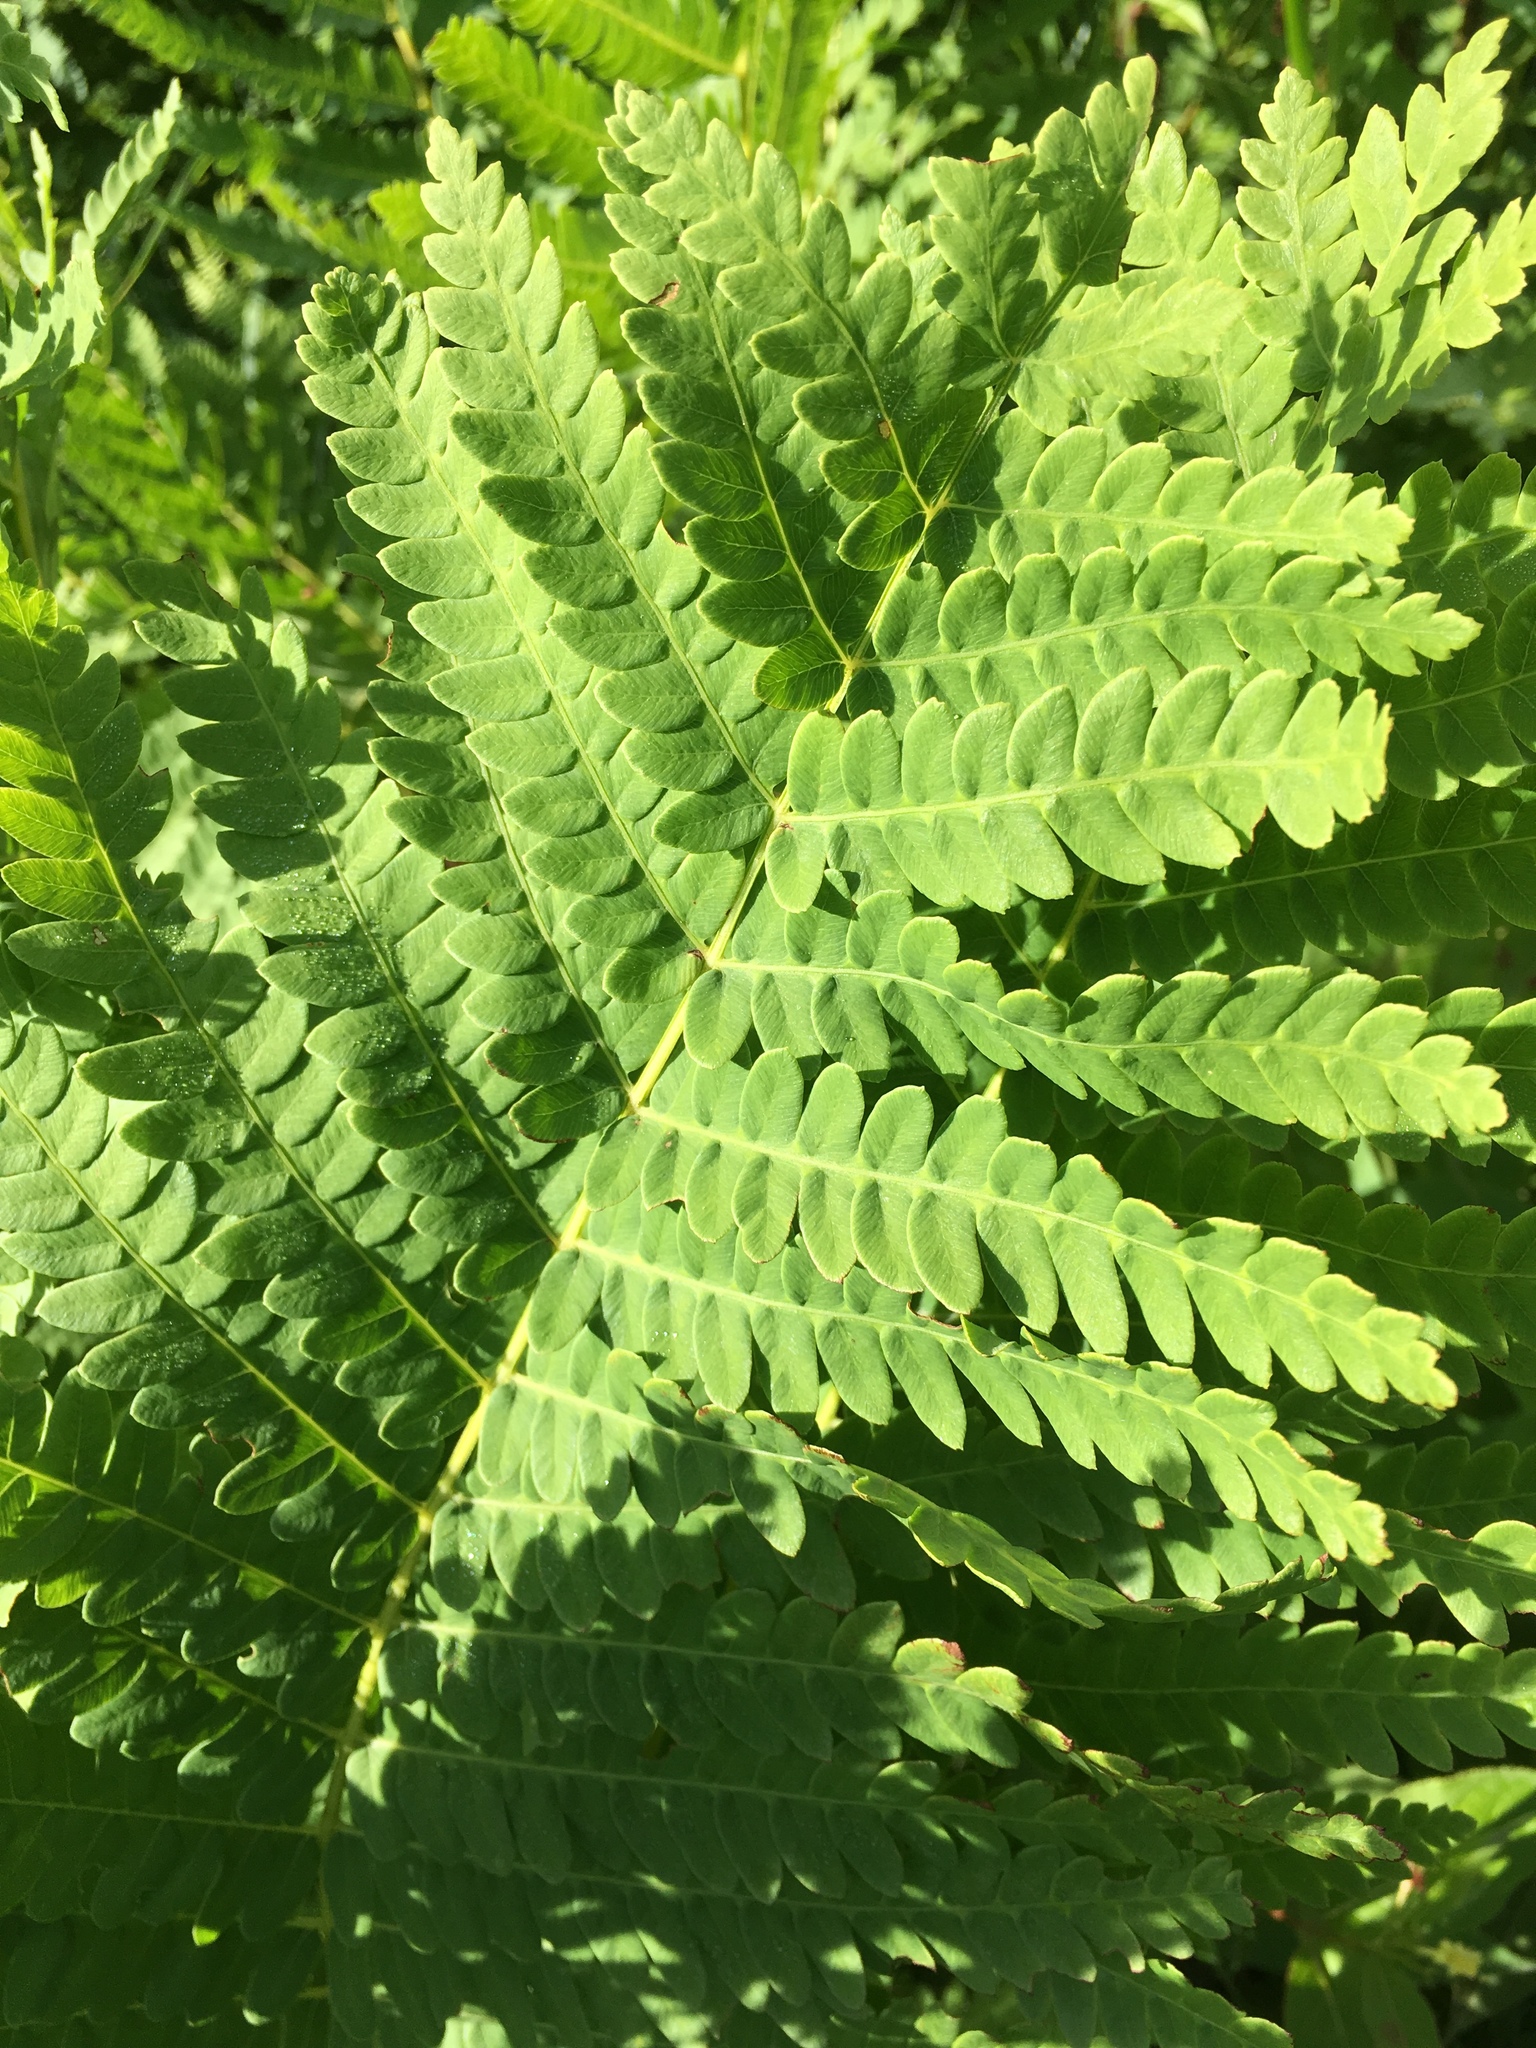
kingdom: Plantae
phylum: Tracheophyta
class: Polypodiopsida
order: Osmundales
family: Osmundaceae
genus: Osmundastrum
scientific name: Osmundastrum cinnamomeum
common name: Cinnamon fern
